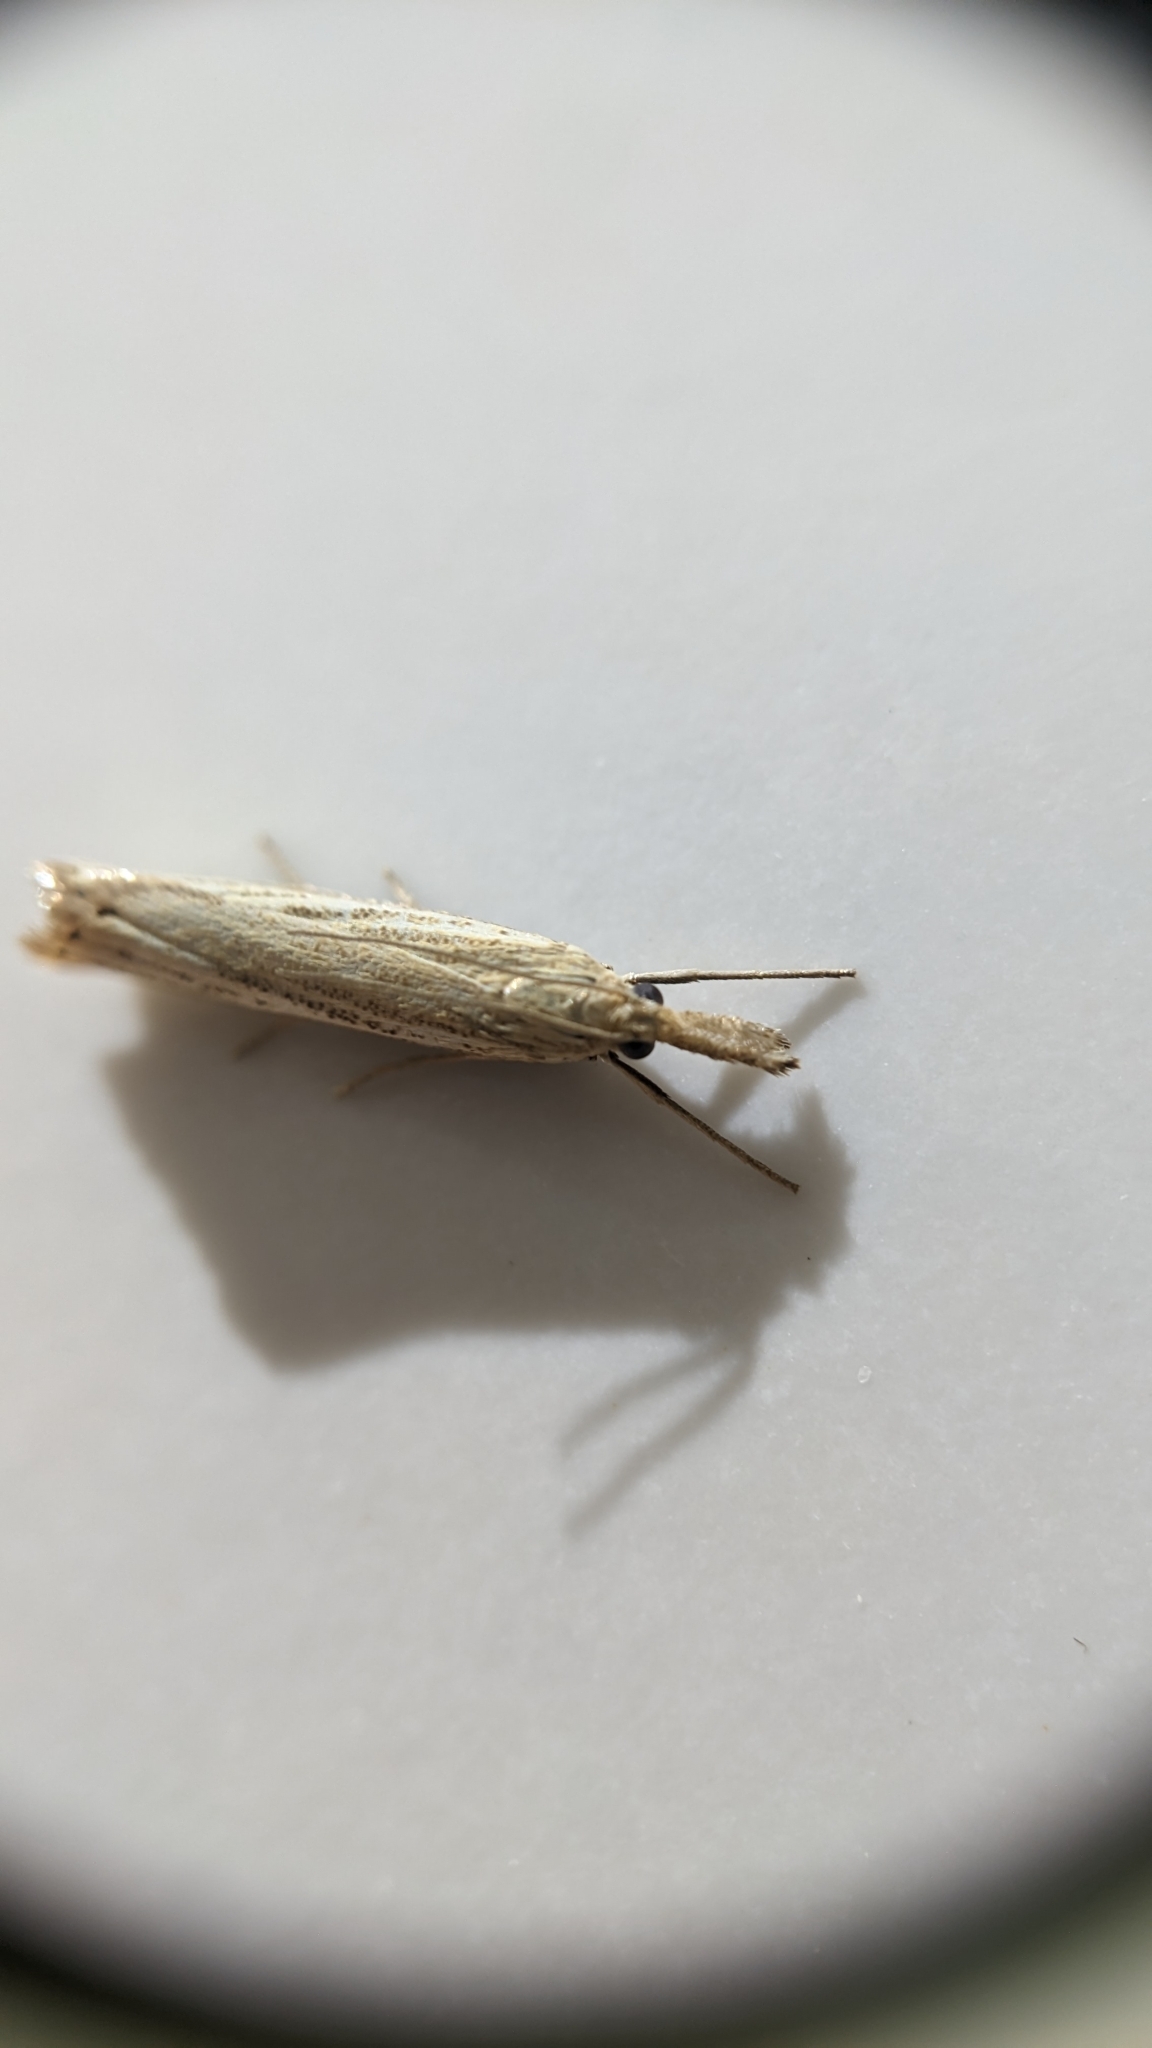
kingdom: Animalia
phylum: Arthropoda
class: Insecta
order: Lepidoptera
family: Crambidae
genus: Agriphila
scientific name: Agriphila straminella
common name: Straw grass-veneer
